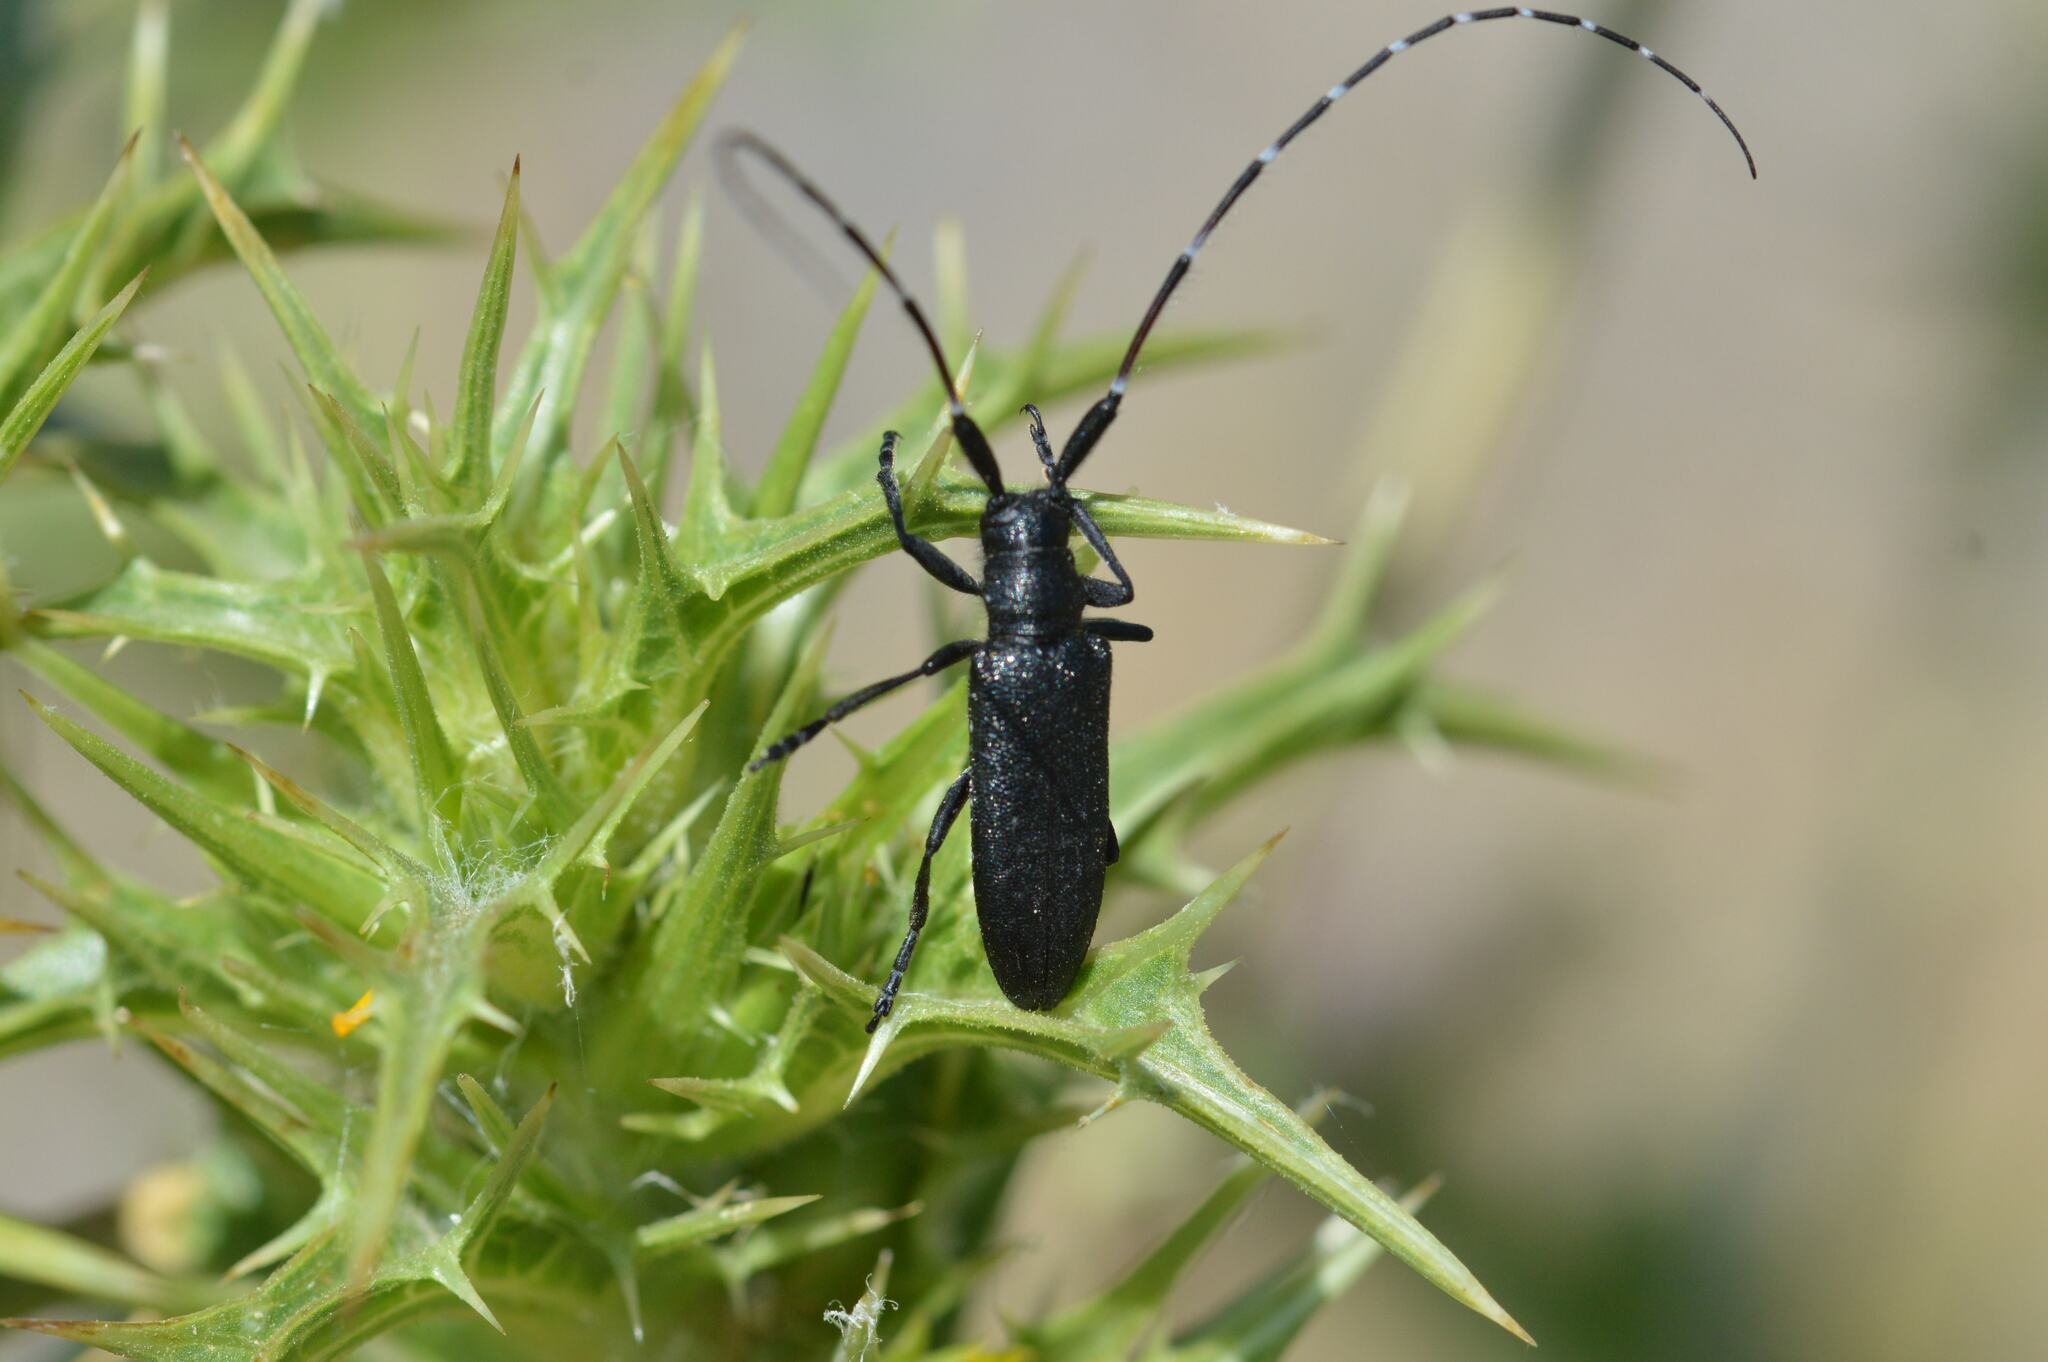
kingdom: Animalia
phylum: Arthropoda
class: Insecta
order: Coleoptera
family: Cerambycidae
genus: Agapanthia
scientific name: Agapanthia irrorata
